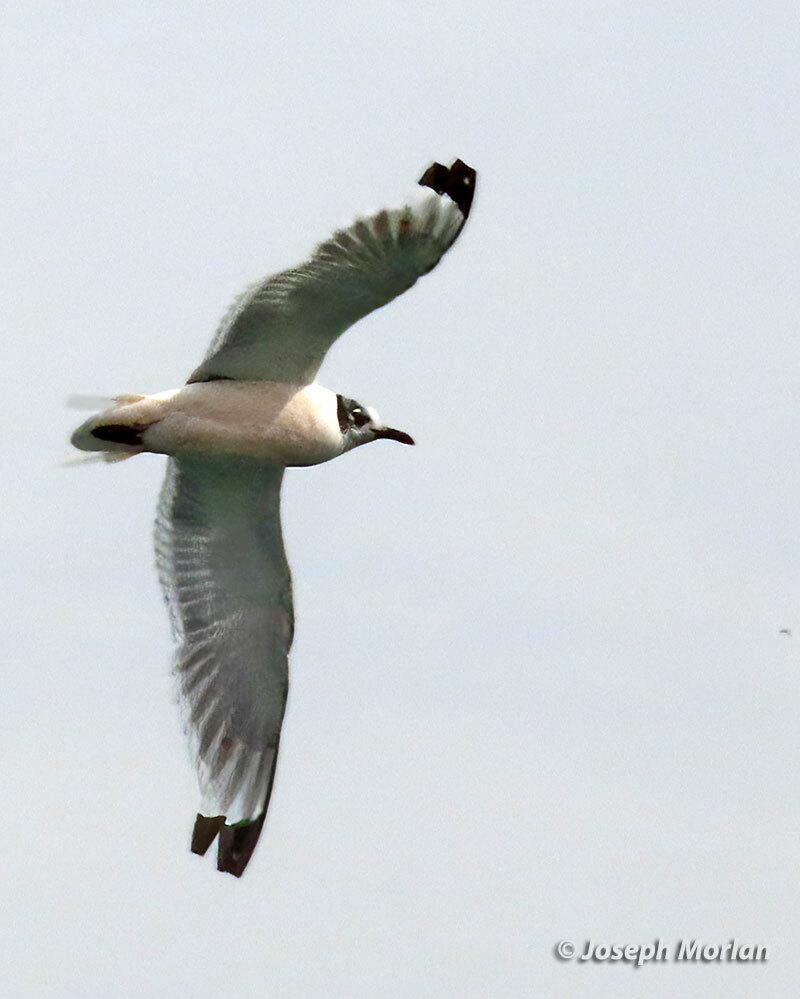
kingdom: Animalia
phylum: Chordata
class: Aves
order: Charadriiformes
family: Laridae
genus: Leucophaeus
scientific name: Leucophaeus pipixcan
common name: Franklin's gull
